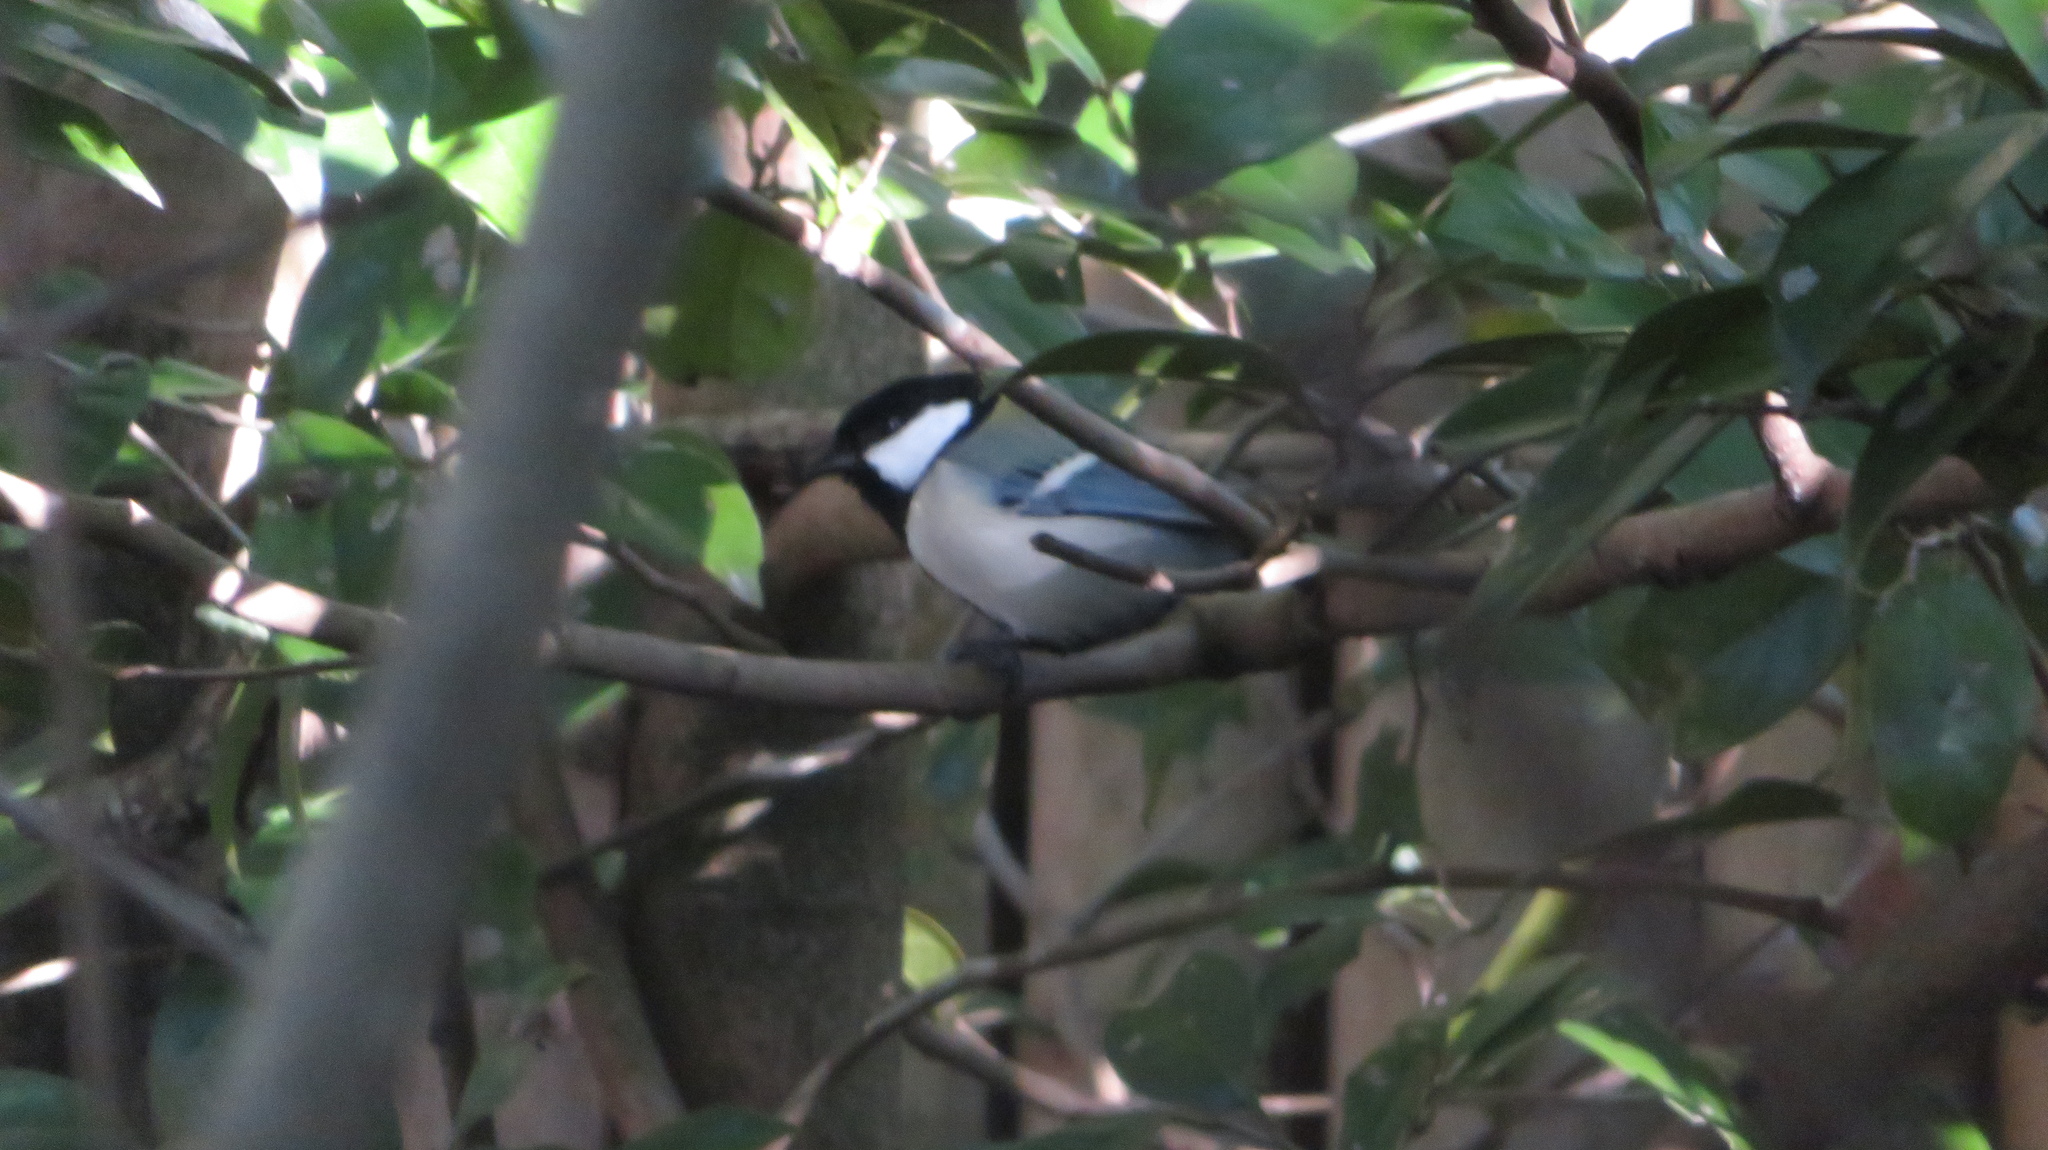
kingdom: Animalia
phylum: Chordata
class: Aves
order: Passeriformes
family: Paridae
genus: Parus
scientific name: Parus minor
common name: Japanese tit
